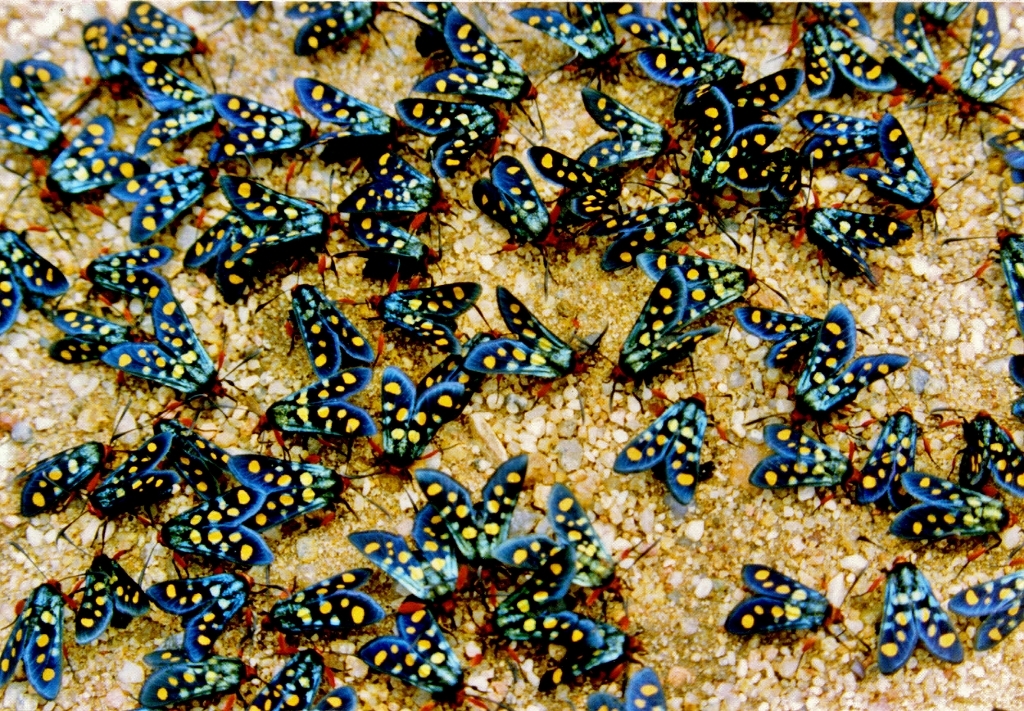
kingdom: Animalia
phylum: Arthropoda
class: Insecta
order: Lepidoptera
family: Thyrididae
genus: Arniocera
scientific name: Arniocera auriguttata
